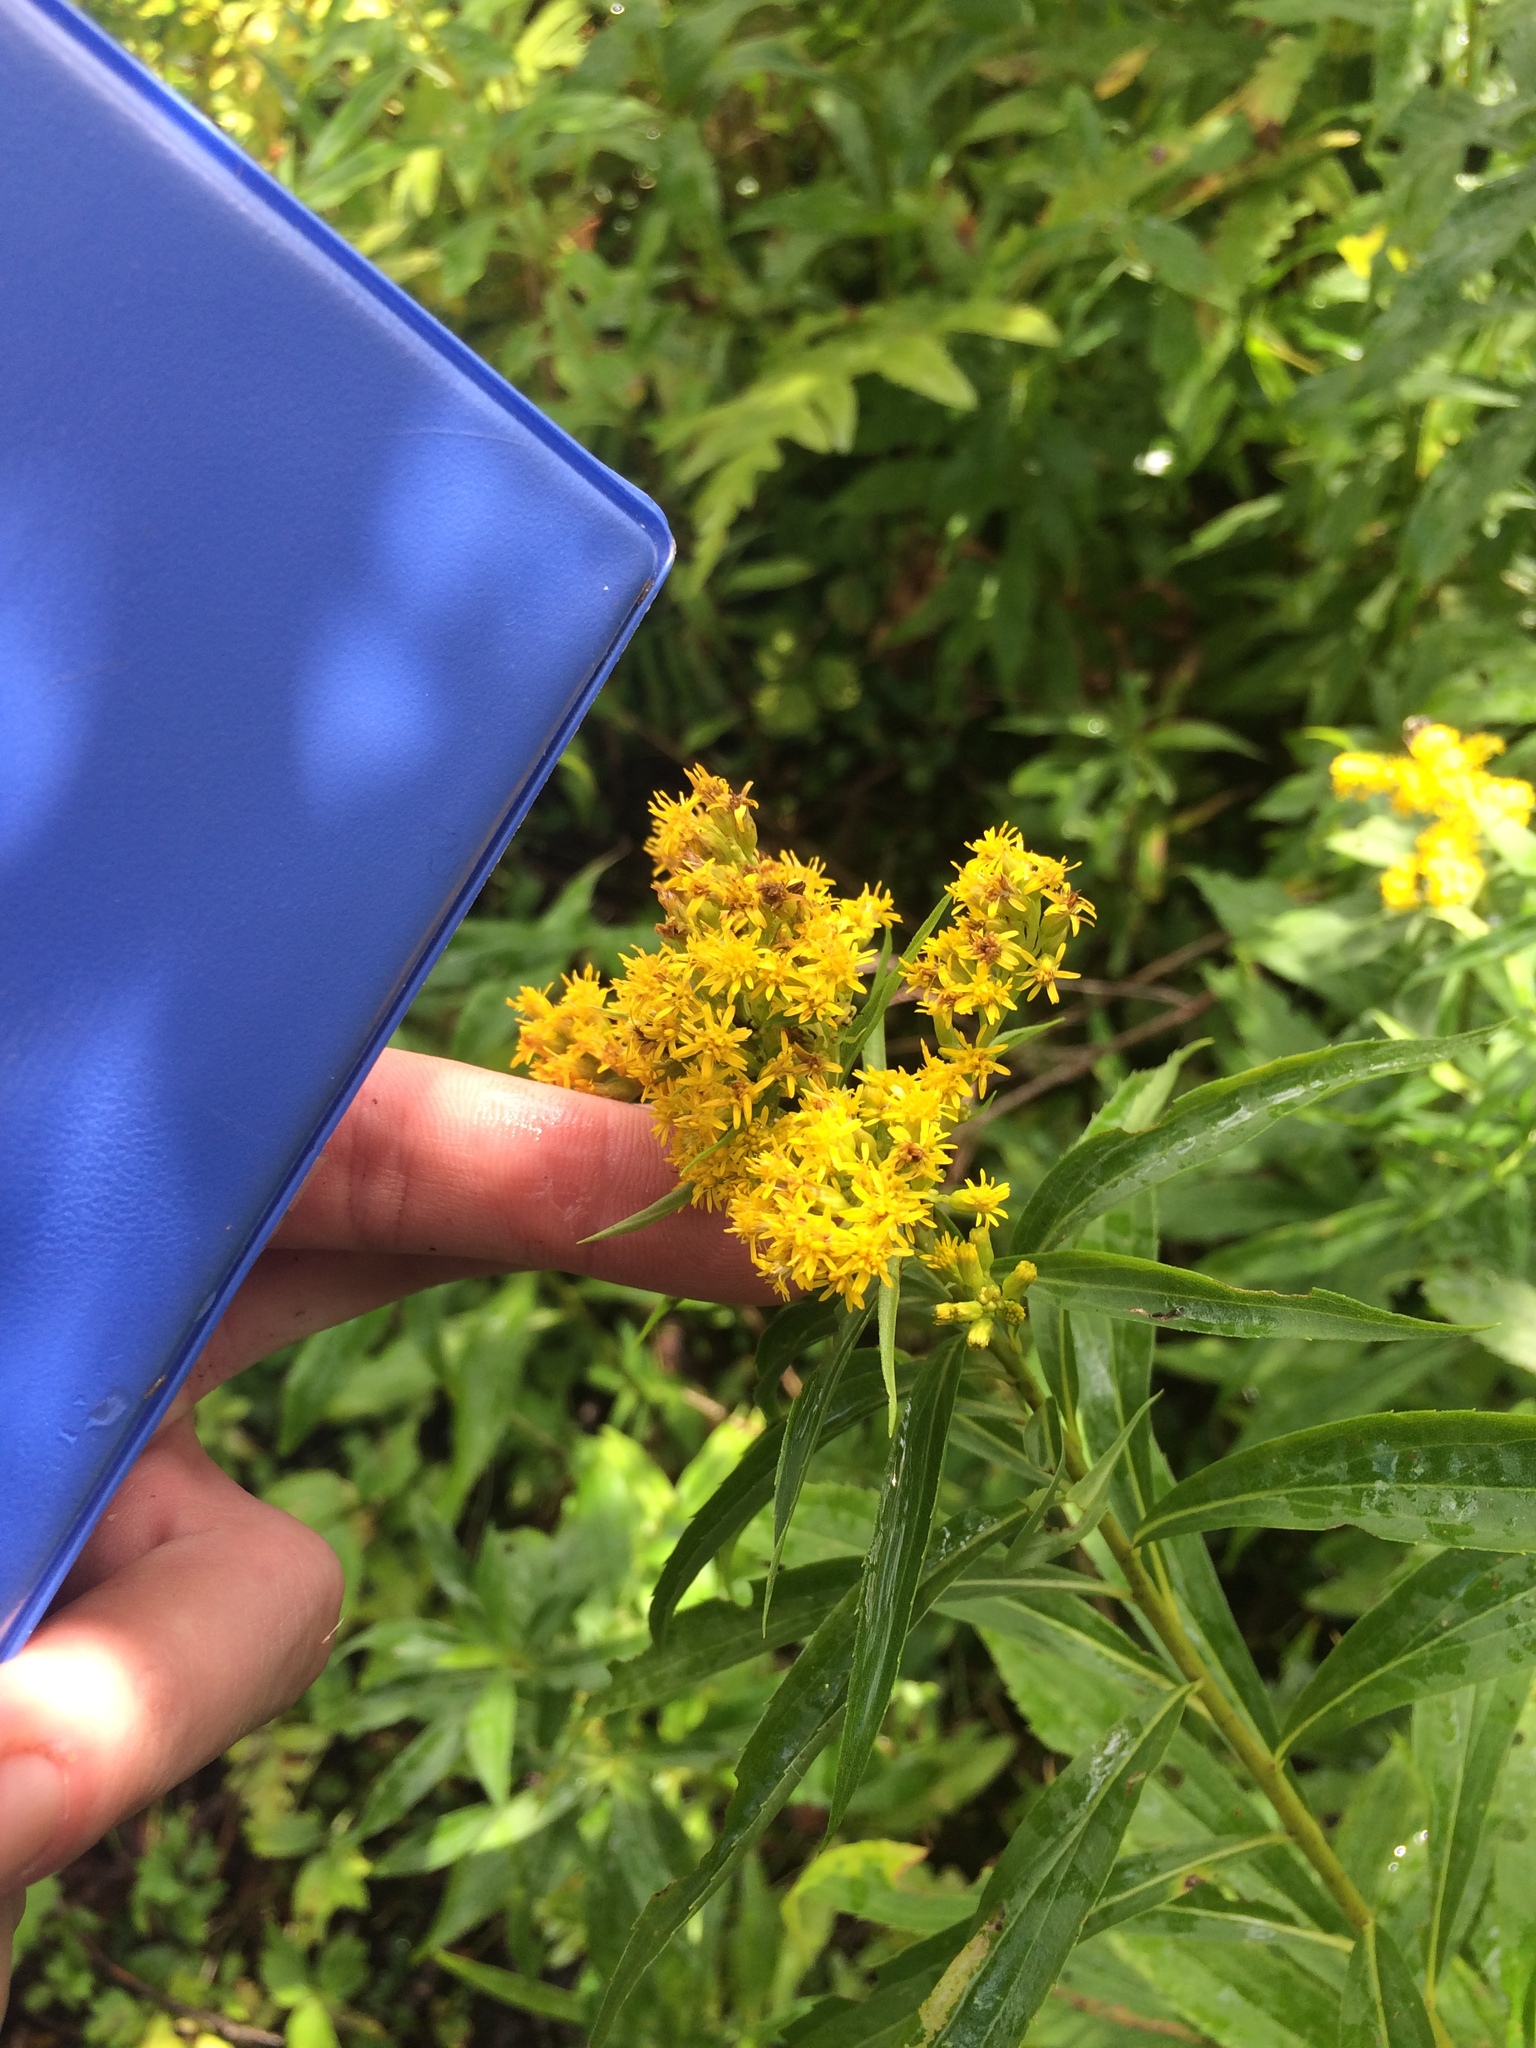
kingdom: Plantae
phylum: Tracheophyta
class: Magnoliopsida
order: Asterales
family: Asteraceae
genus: Solidago
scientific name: Solidago gigantea
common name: Giant goldenrod
